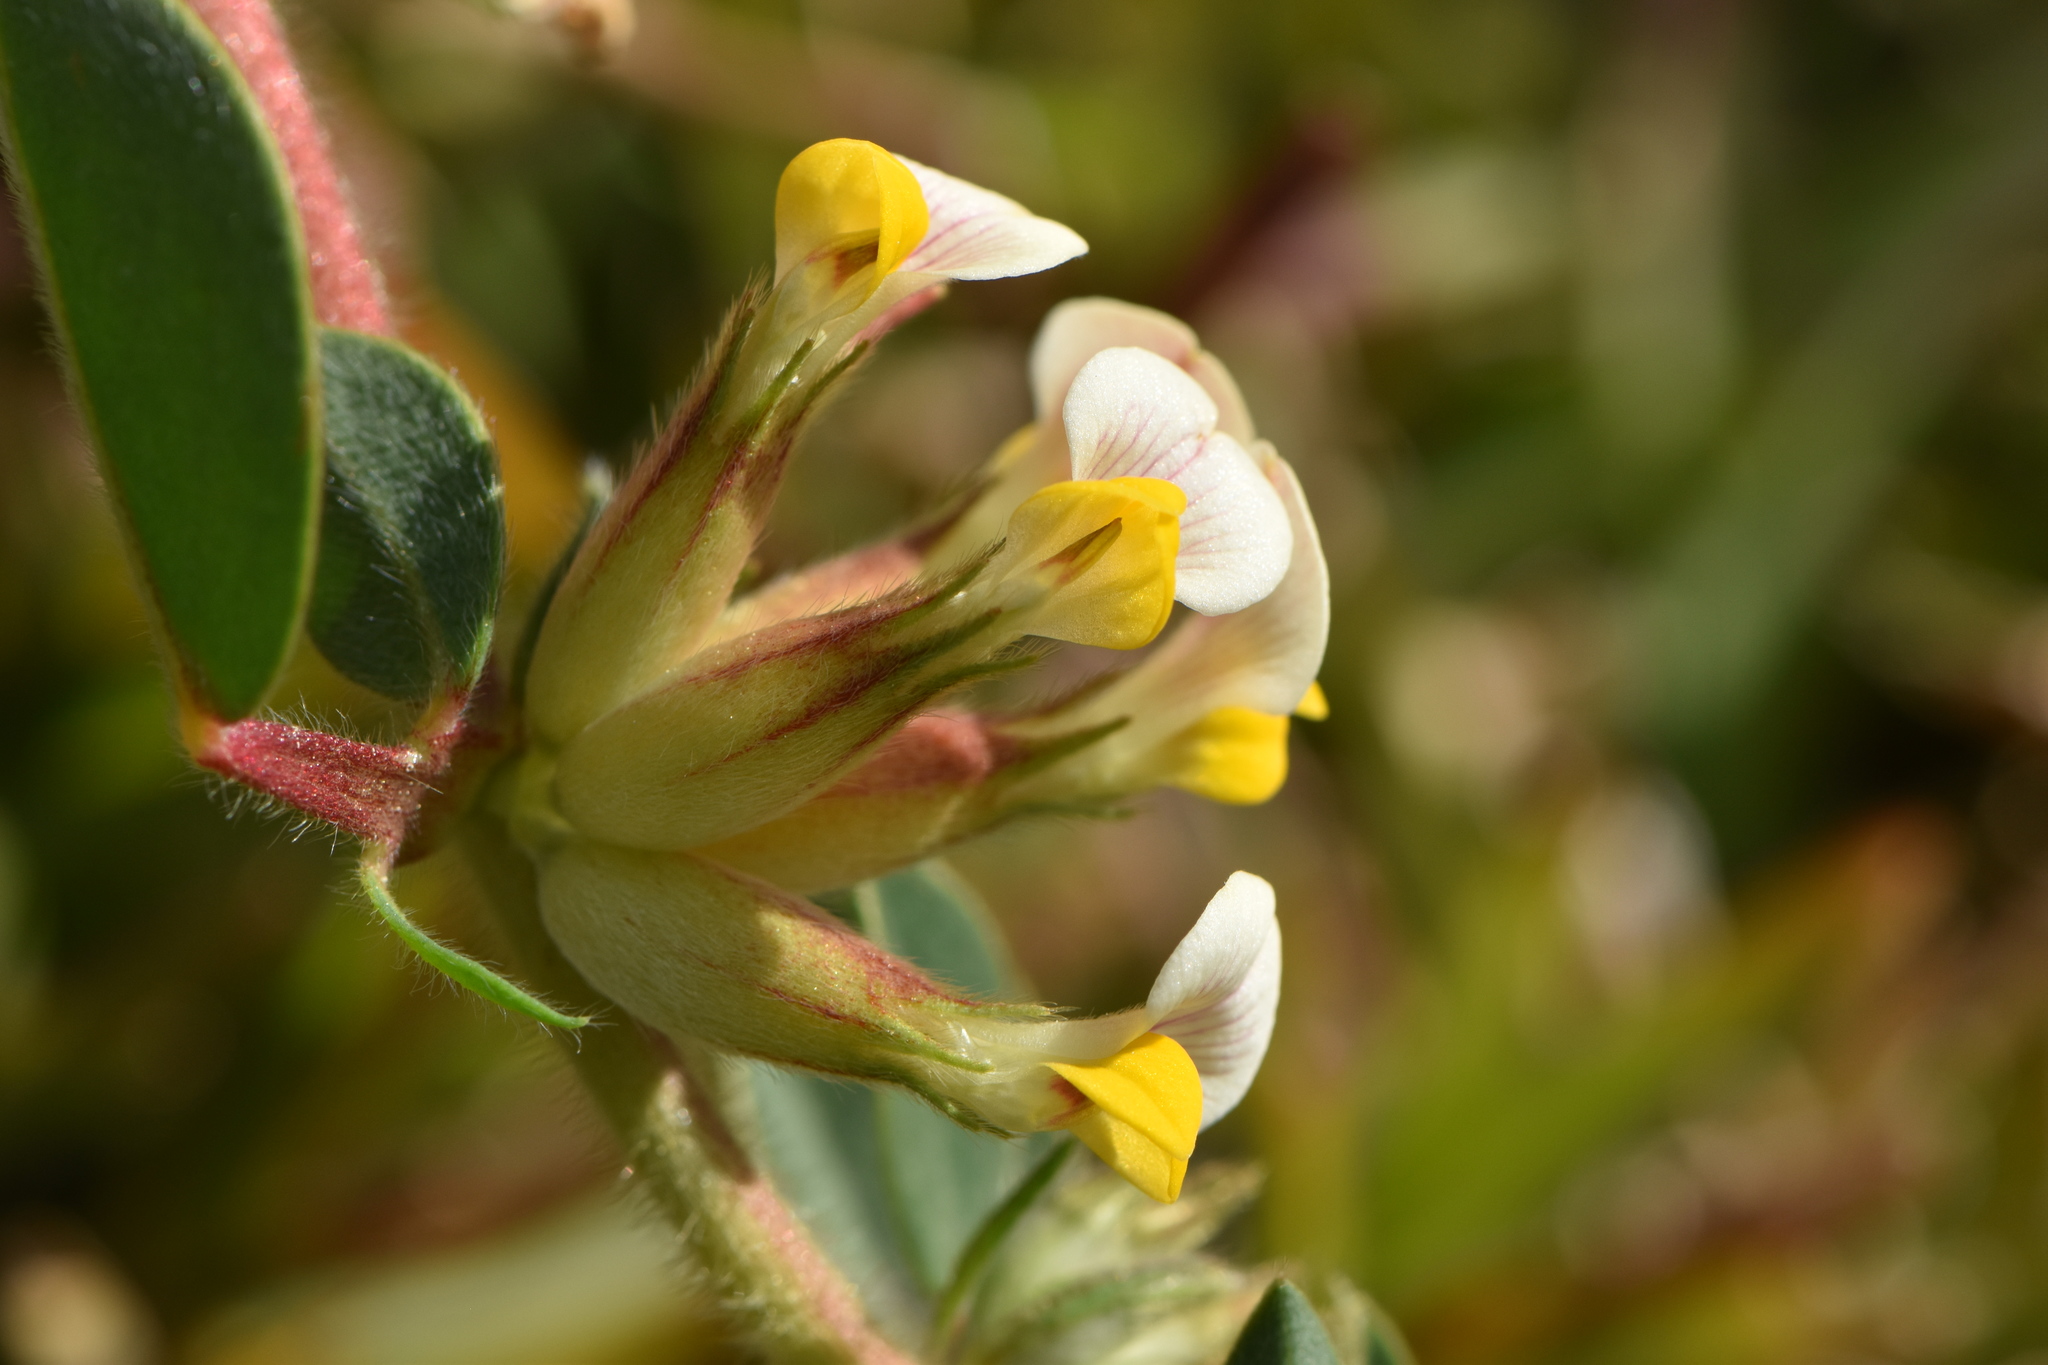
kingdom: Plantae
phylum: Tracheophyta
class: Magnoliopsida
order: Fabales
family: Fabaceae
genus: Tripodion
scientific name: Tripodion tetraphyllum
